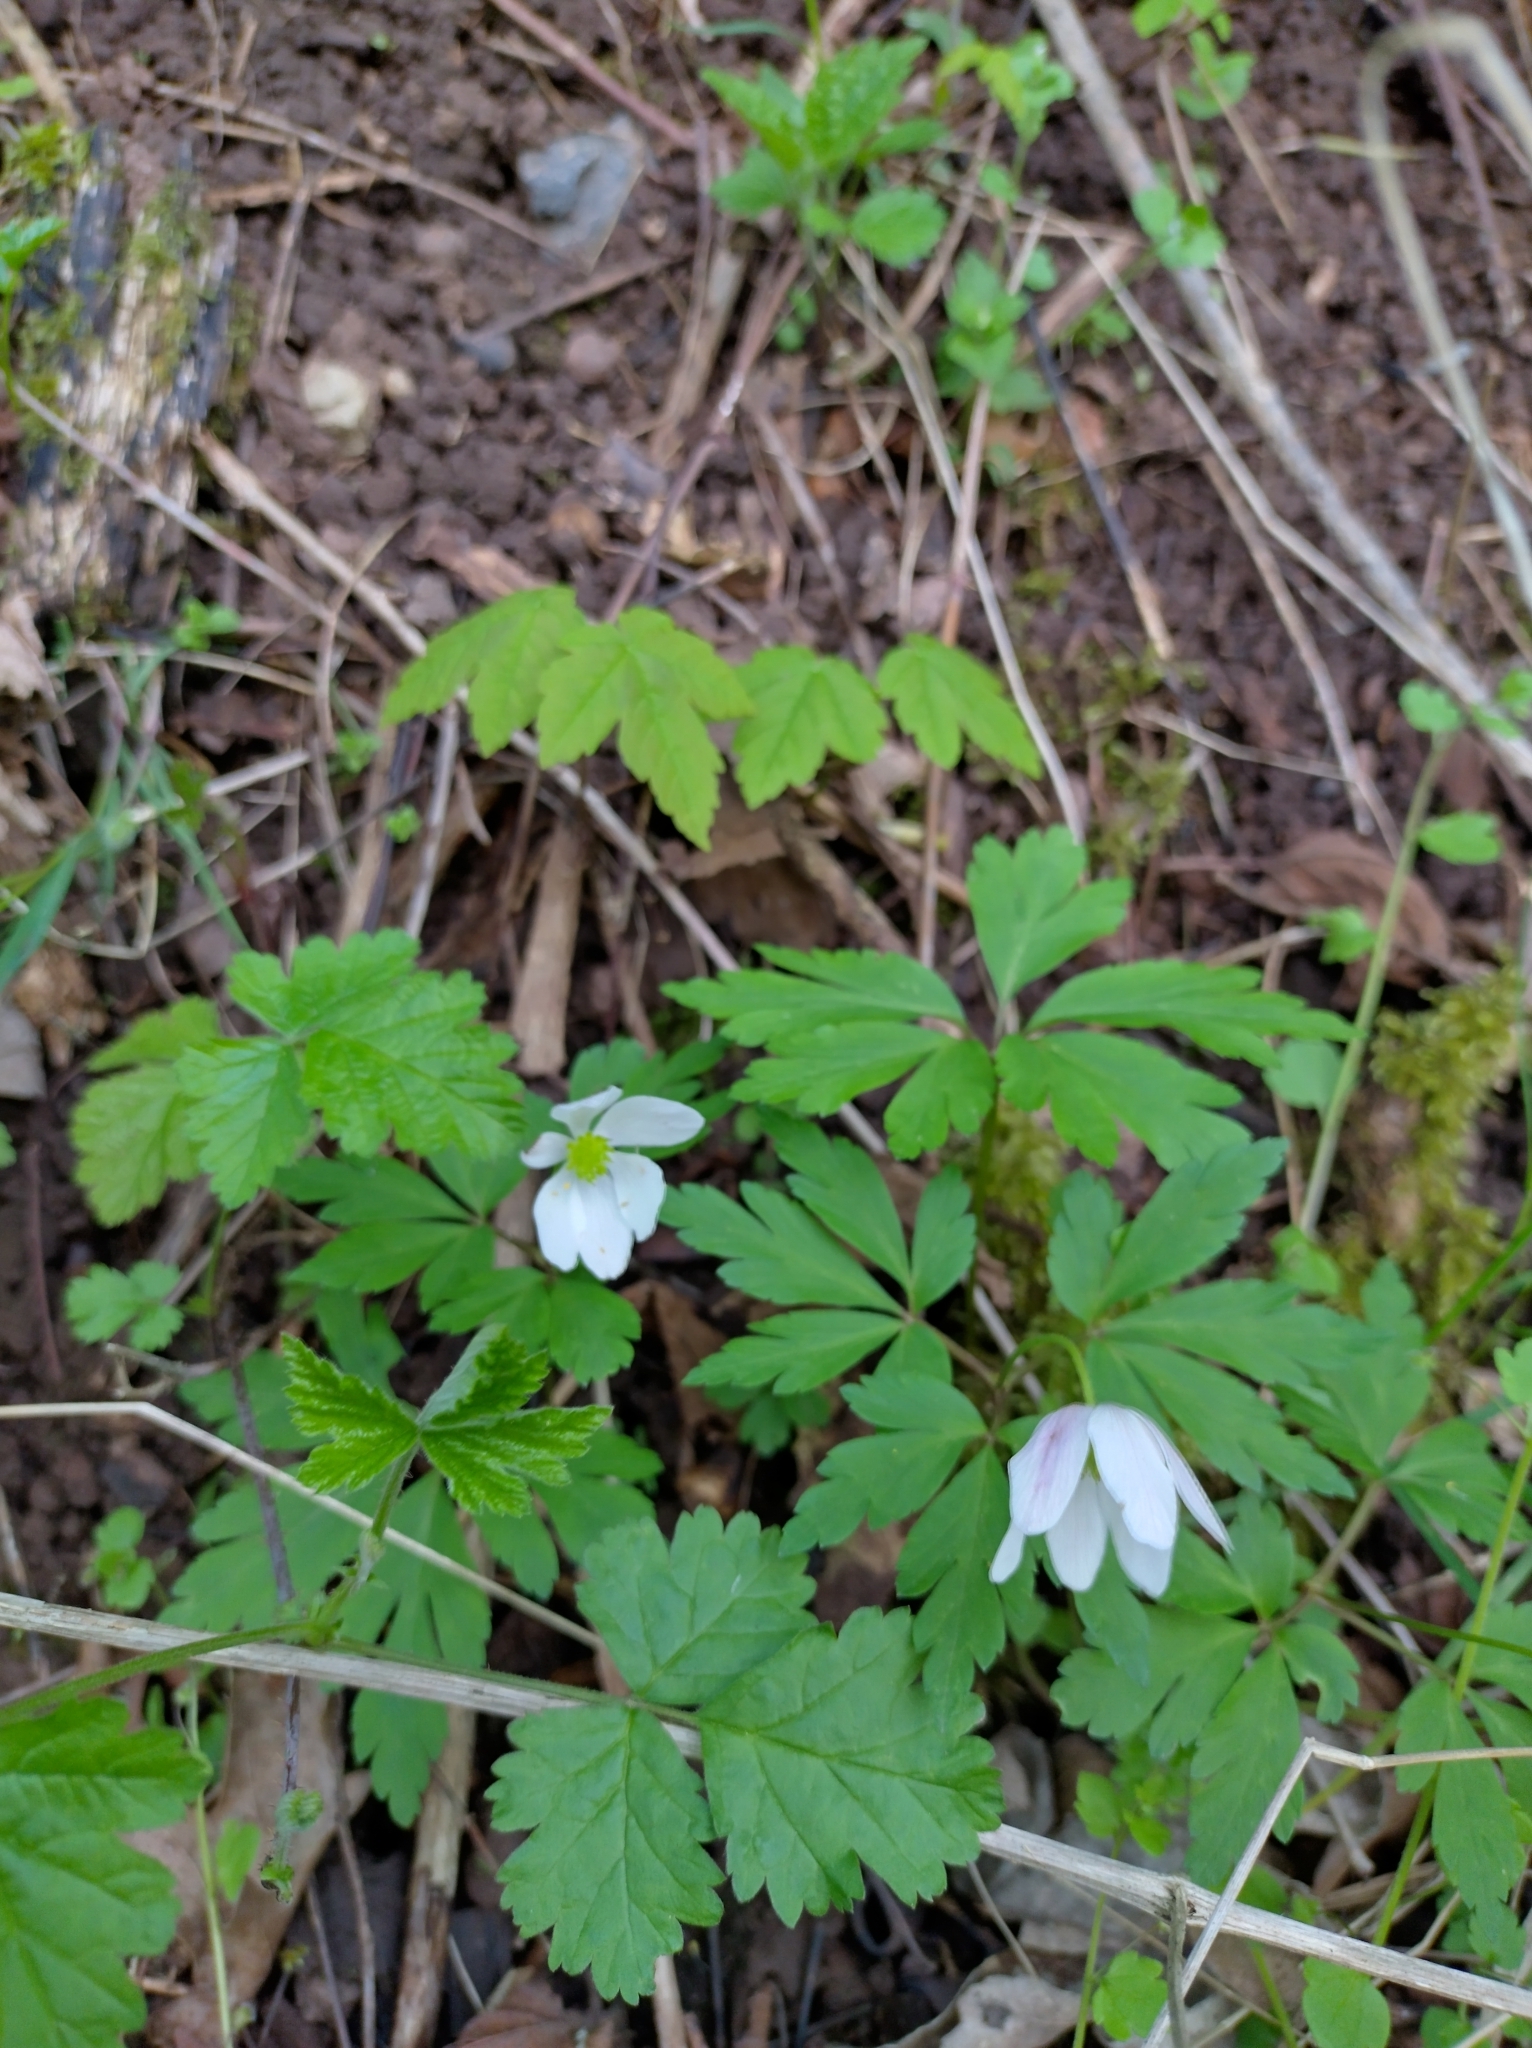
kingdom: Plantae
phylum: Tracheophyta
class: Magnoliopsida
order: Ranunculales
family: Ranunculaceae
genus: Anemone
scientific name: Anemone nemorosa
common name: Wood anemone
